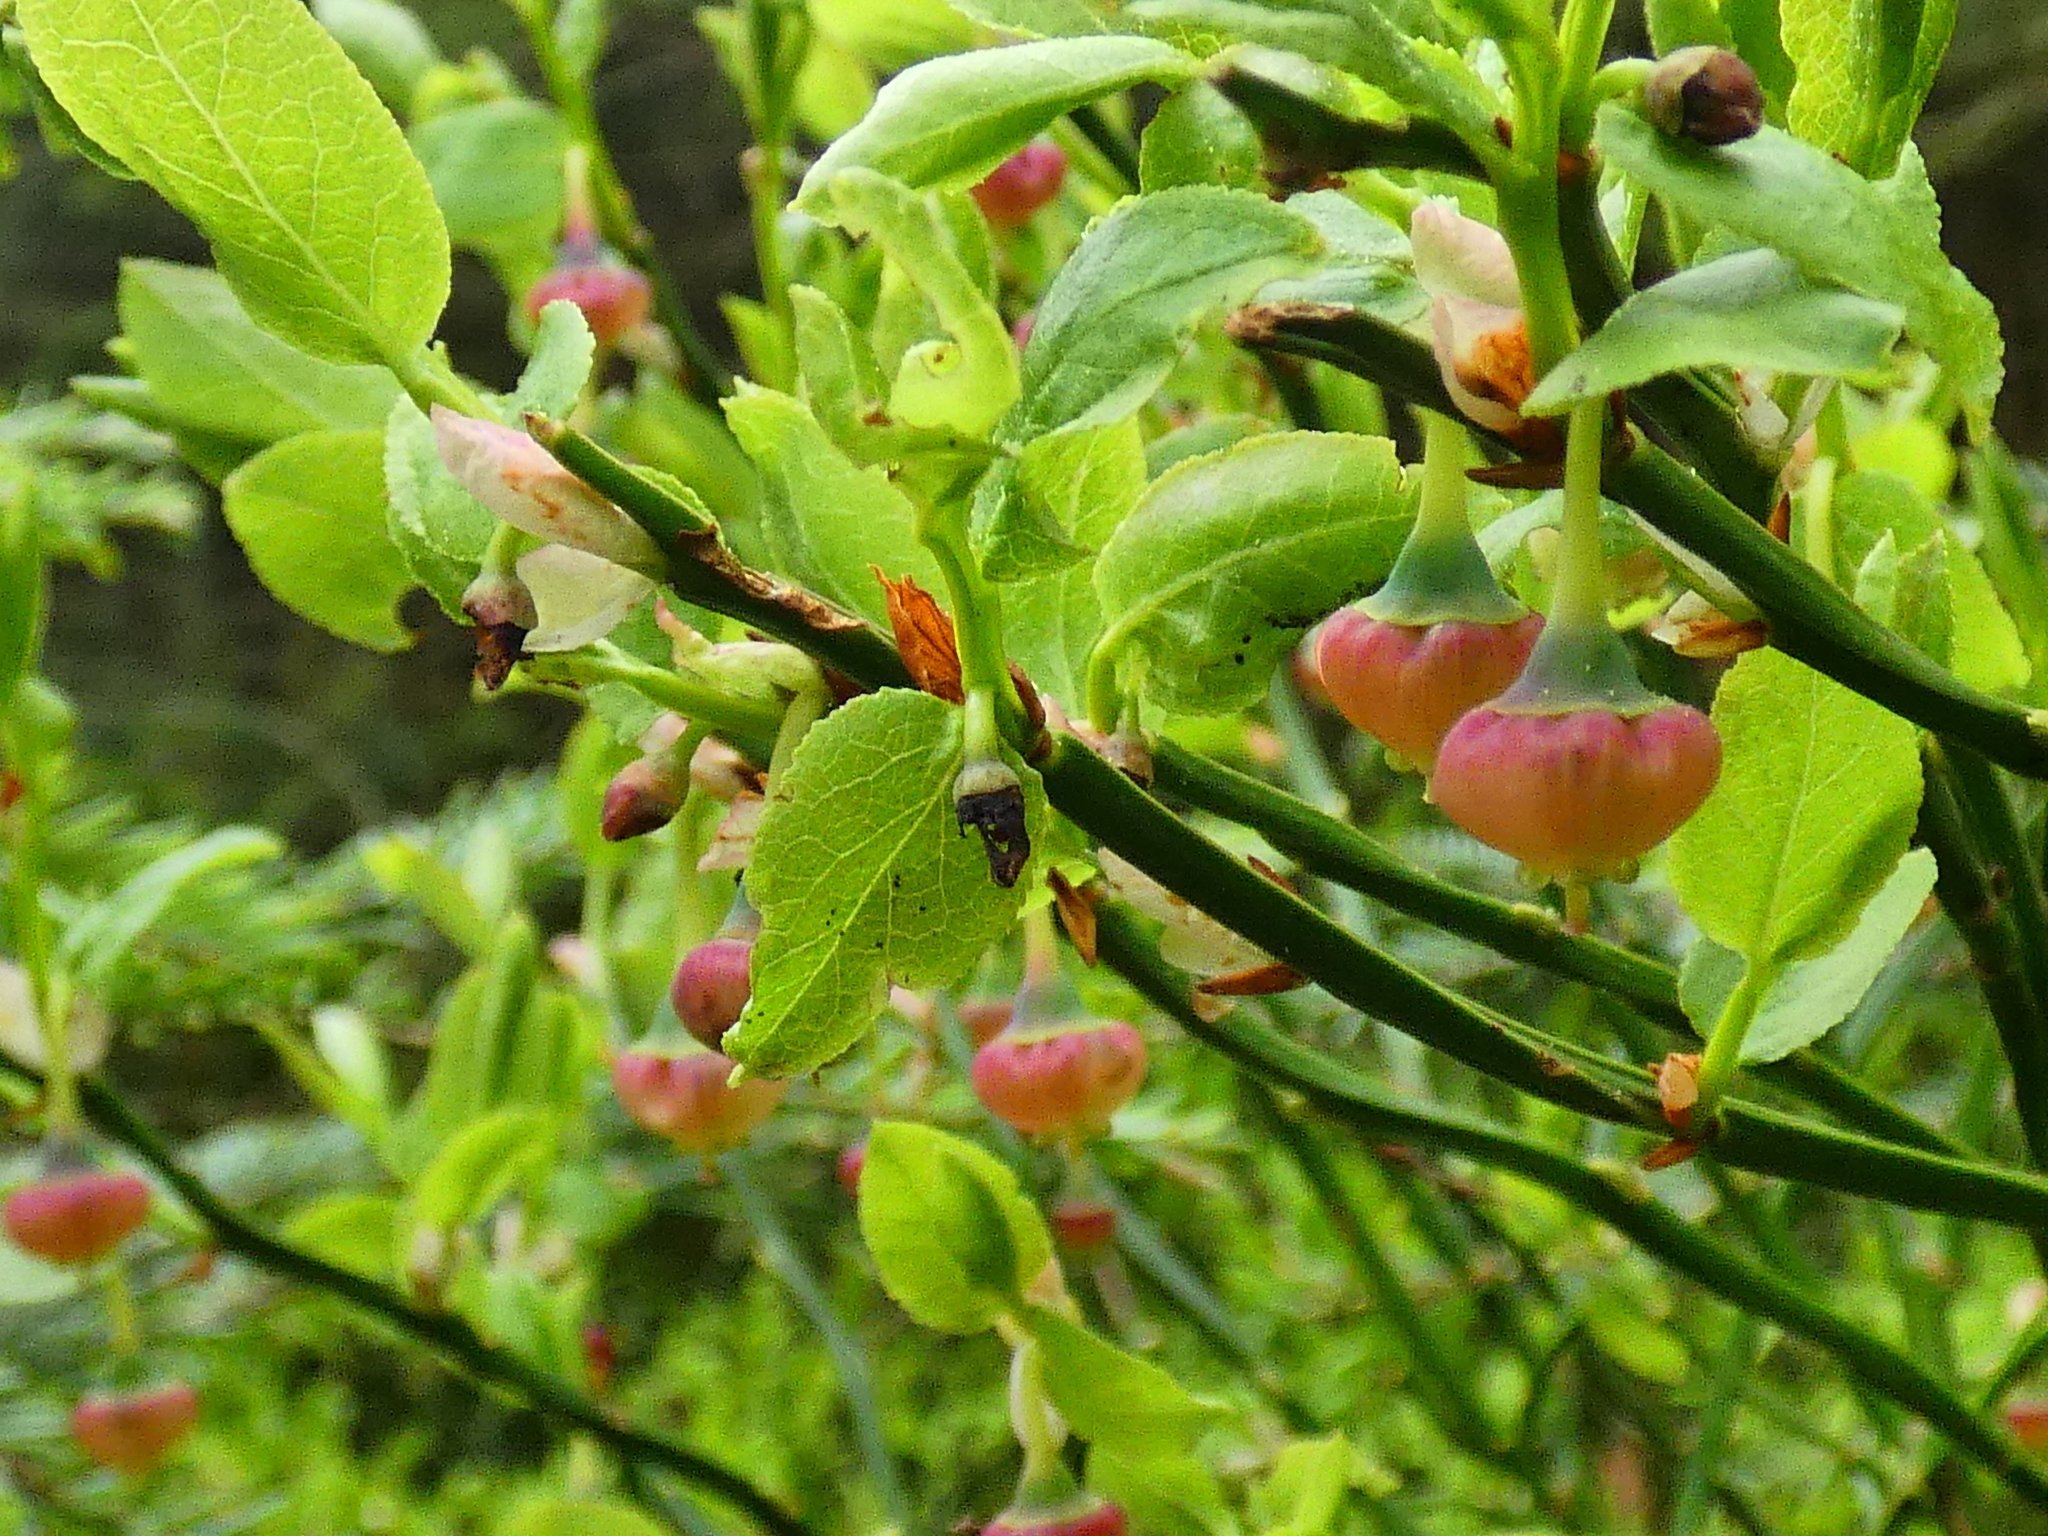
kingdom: Plantae
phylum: Tracheophyta
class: Magnoliopsida
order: Ericales
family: Ericaceae
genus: Vaccinium
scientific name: Vaccinium myrtillus
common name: Bilberry
